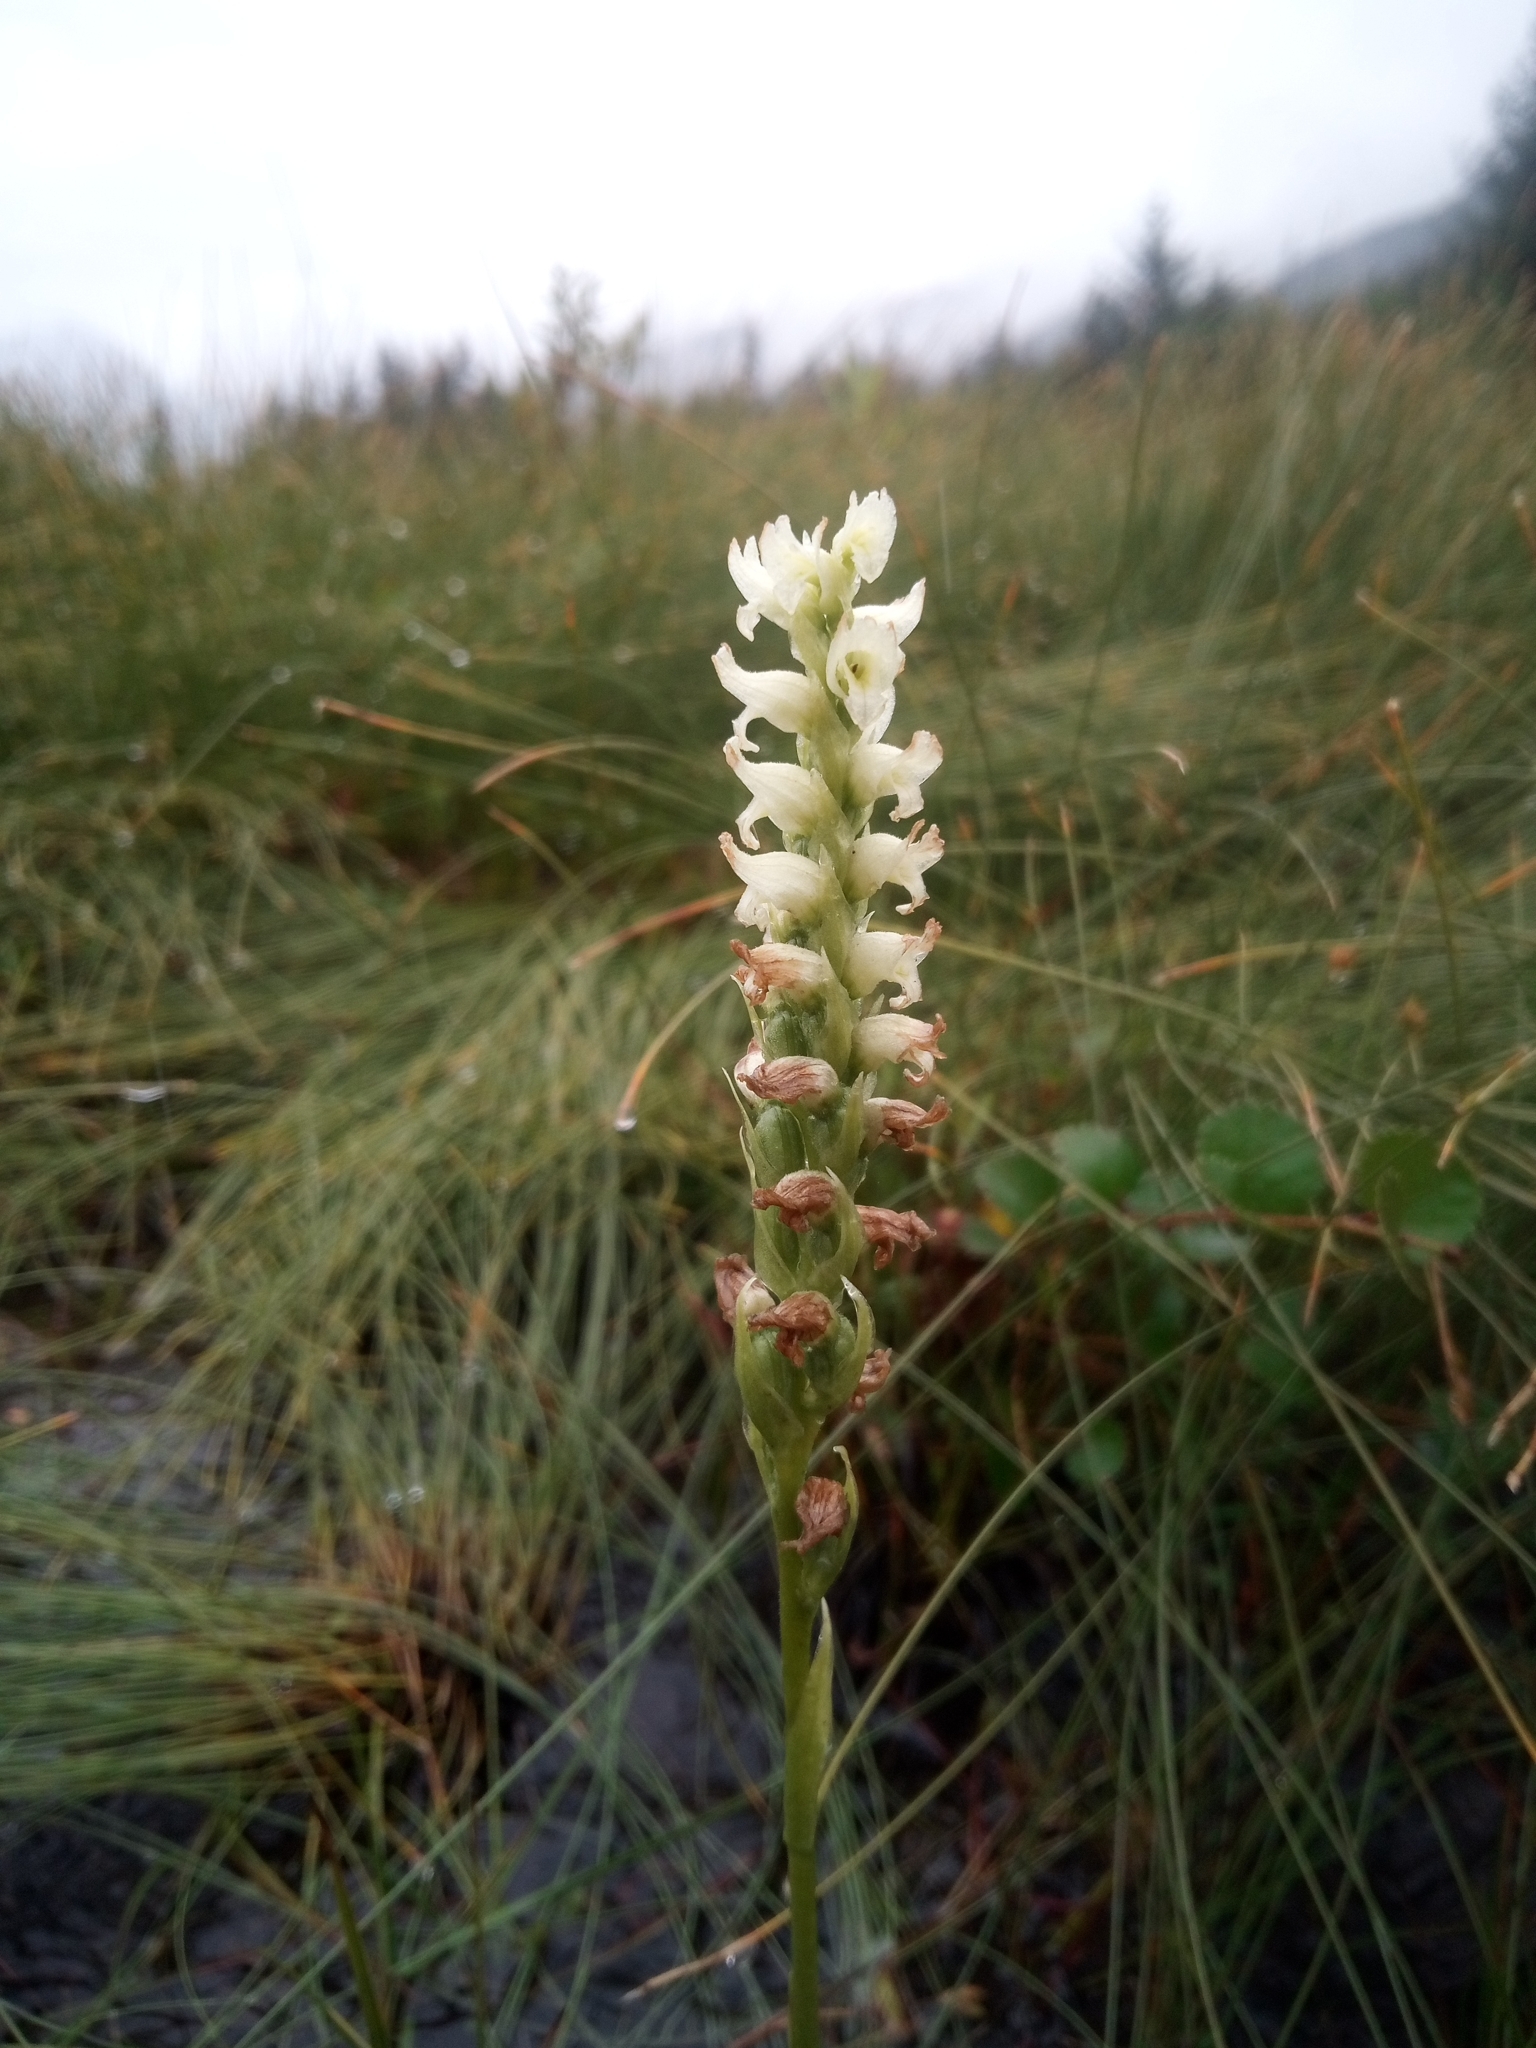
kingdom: Plantae
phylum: Tracheophyta
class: Liliopsida
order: Asparagales
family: Orchidaceae
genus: Spiranthes
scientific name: Spiranthes romanzoffiana
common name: Irish lady's-tresses
